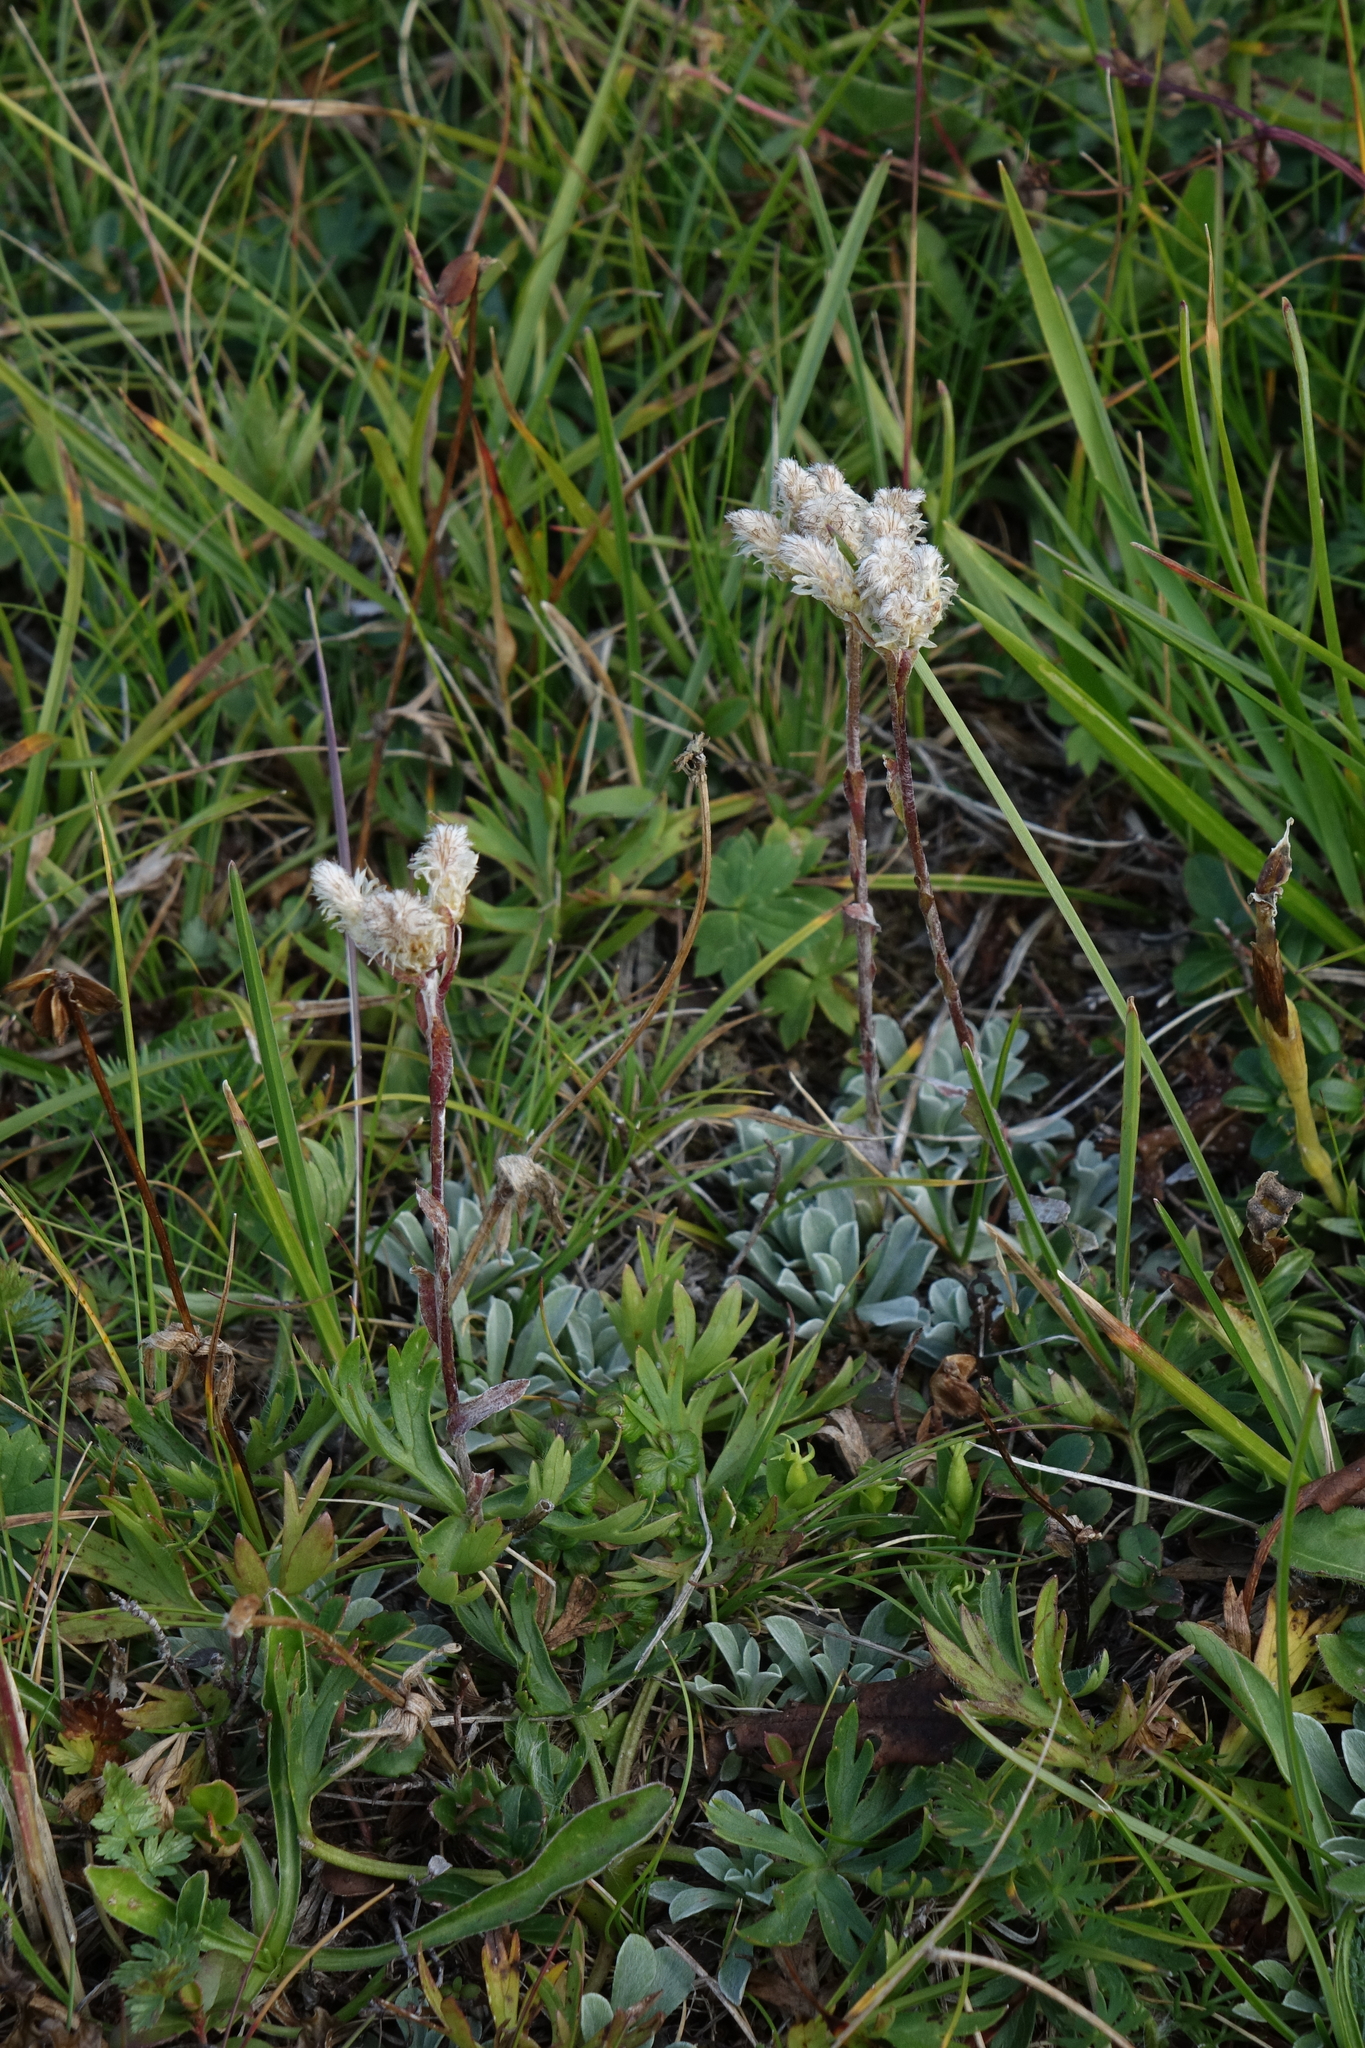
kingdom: Plantae
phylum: Tracheophyta
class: Magnoliopsida
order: Asterales
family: Asteraceae
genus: Antennaria
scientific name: Antennaria caucasica
